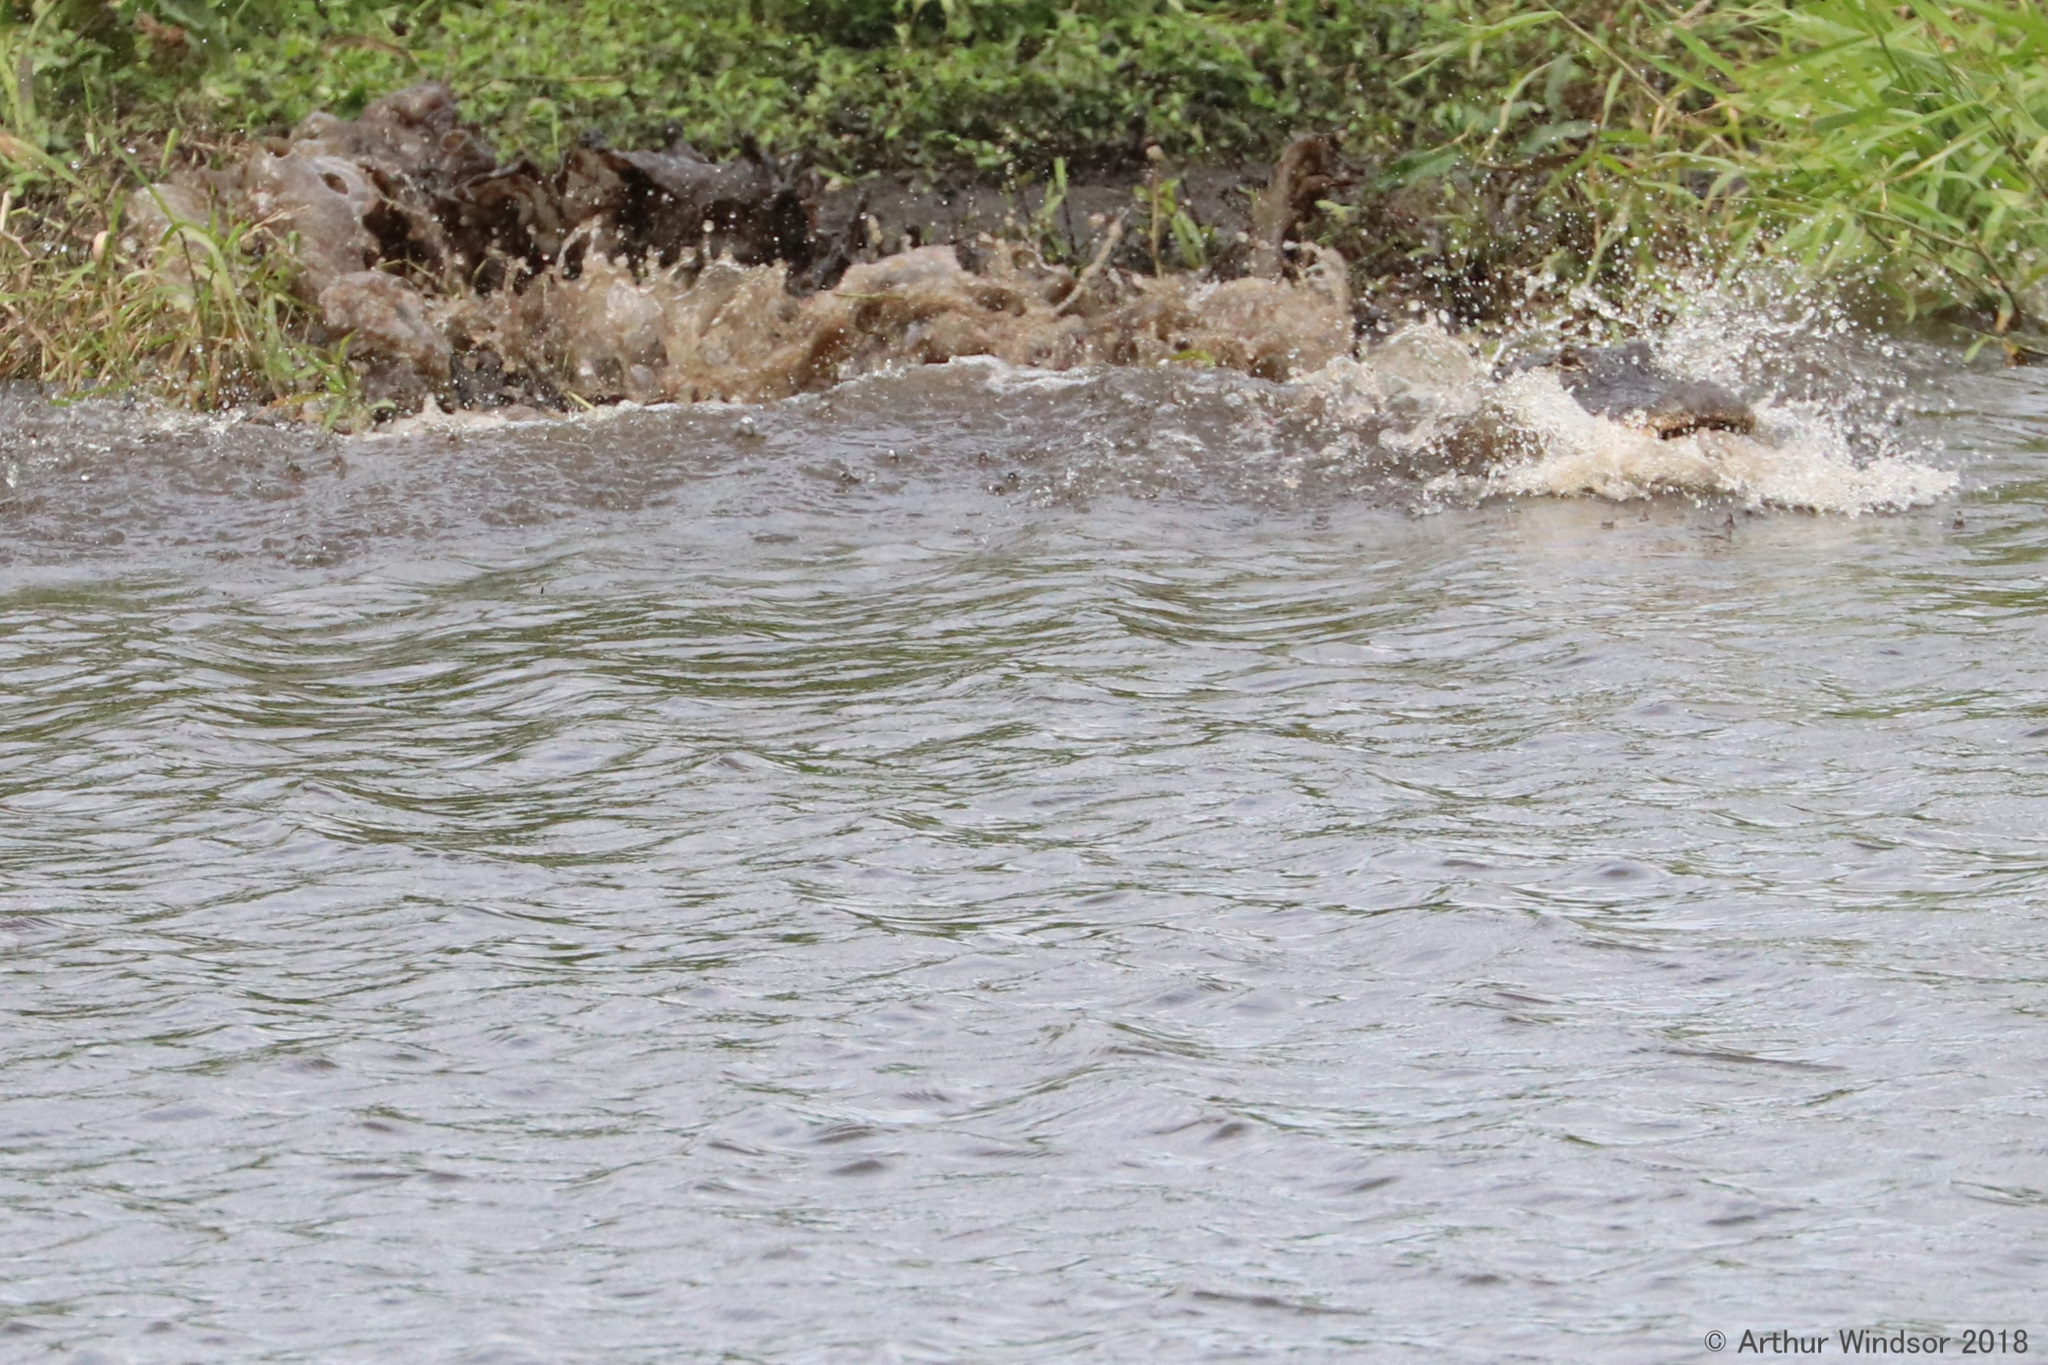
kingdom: Animalia
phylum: Chordata
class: Crocodylia
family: Alligatoridae
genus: Alligator
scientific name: Alligator mississippiensis
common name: American alligator
